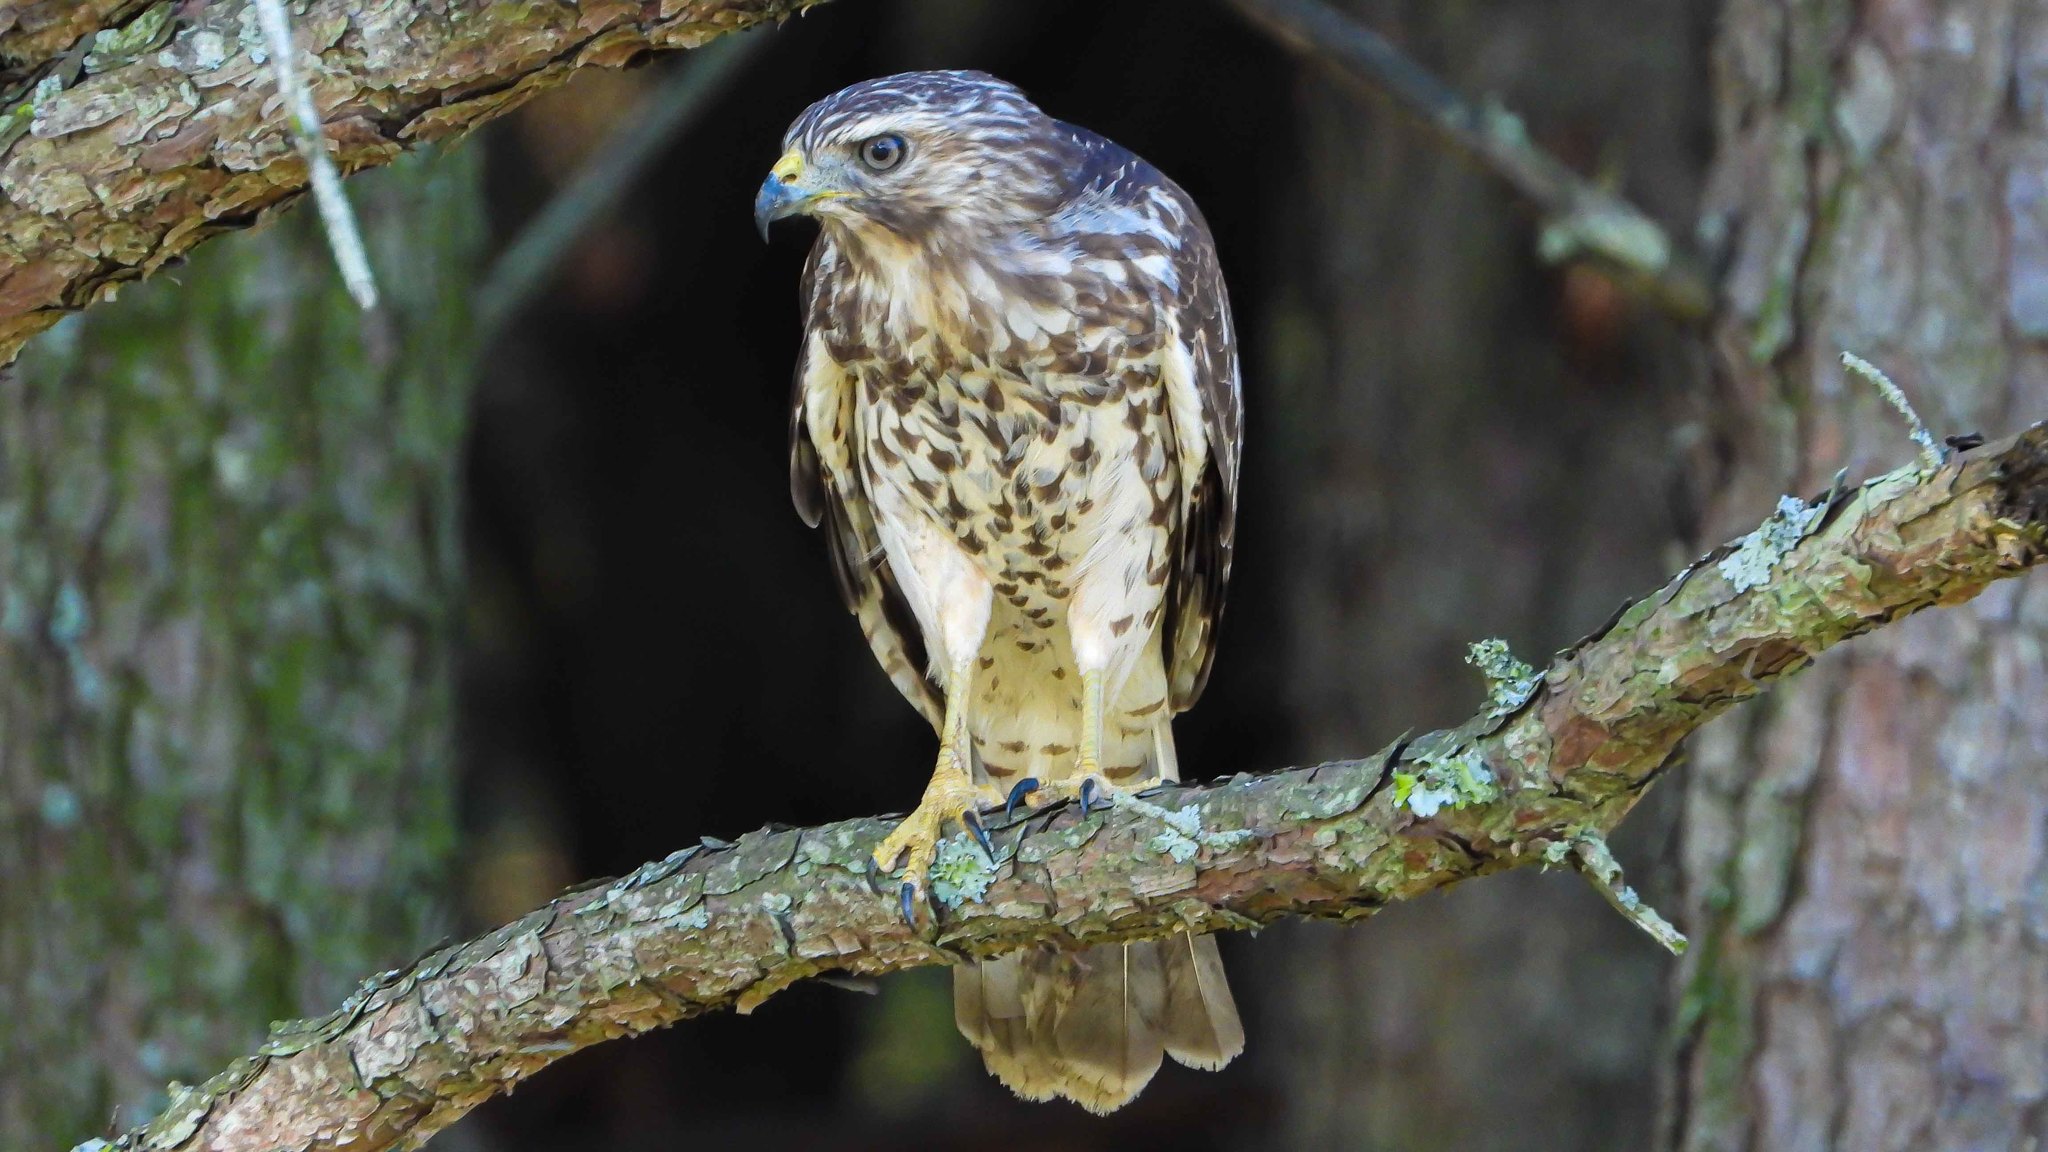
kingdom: Animalia
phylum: Chordata
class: Aves
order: Accipitriformes
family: Accipitridae
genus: Buteo
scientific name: Buteo lineatus
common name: Red-shouldered hawk
